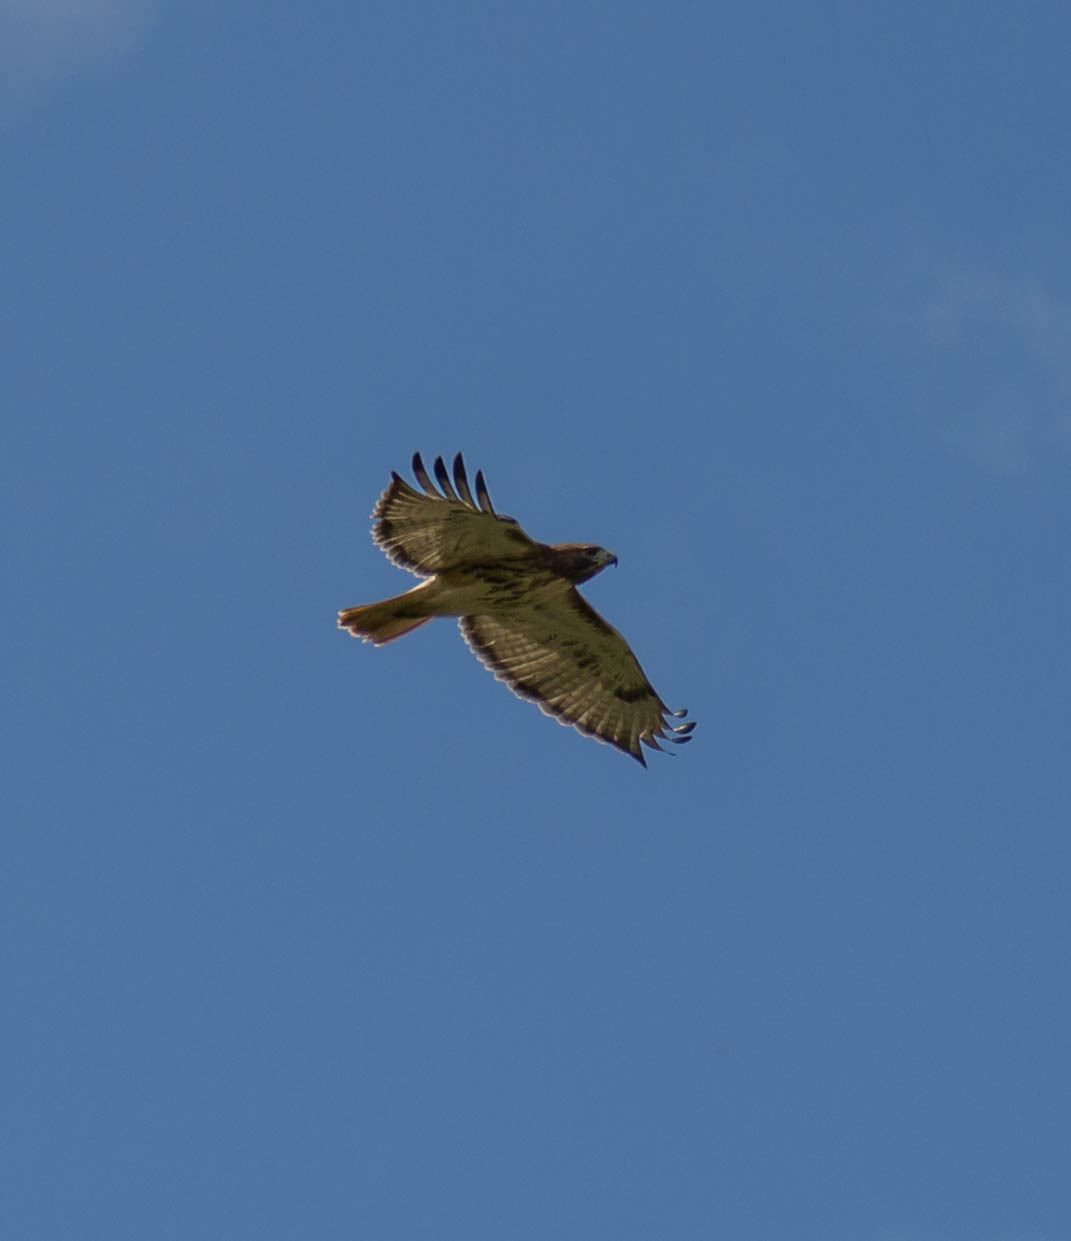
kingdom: Animalia
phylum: Chordata
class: Aves
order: Accipitriformes
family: Accipitridae
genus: Buteo
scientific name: Buteo jamaicensis
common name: Red-tailed hawk
